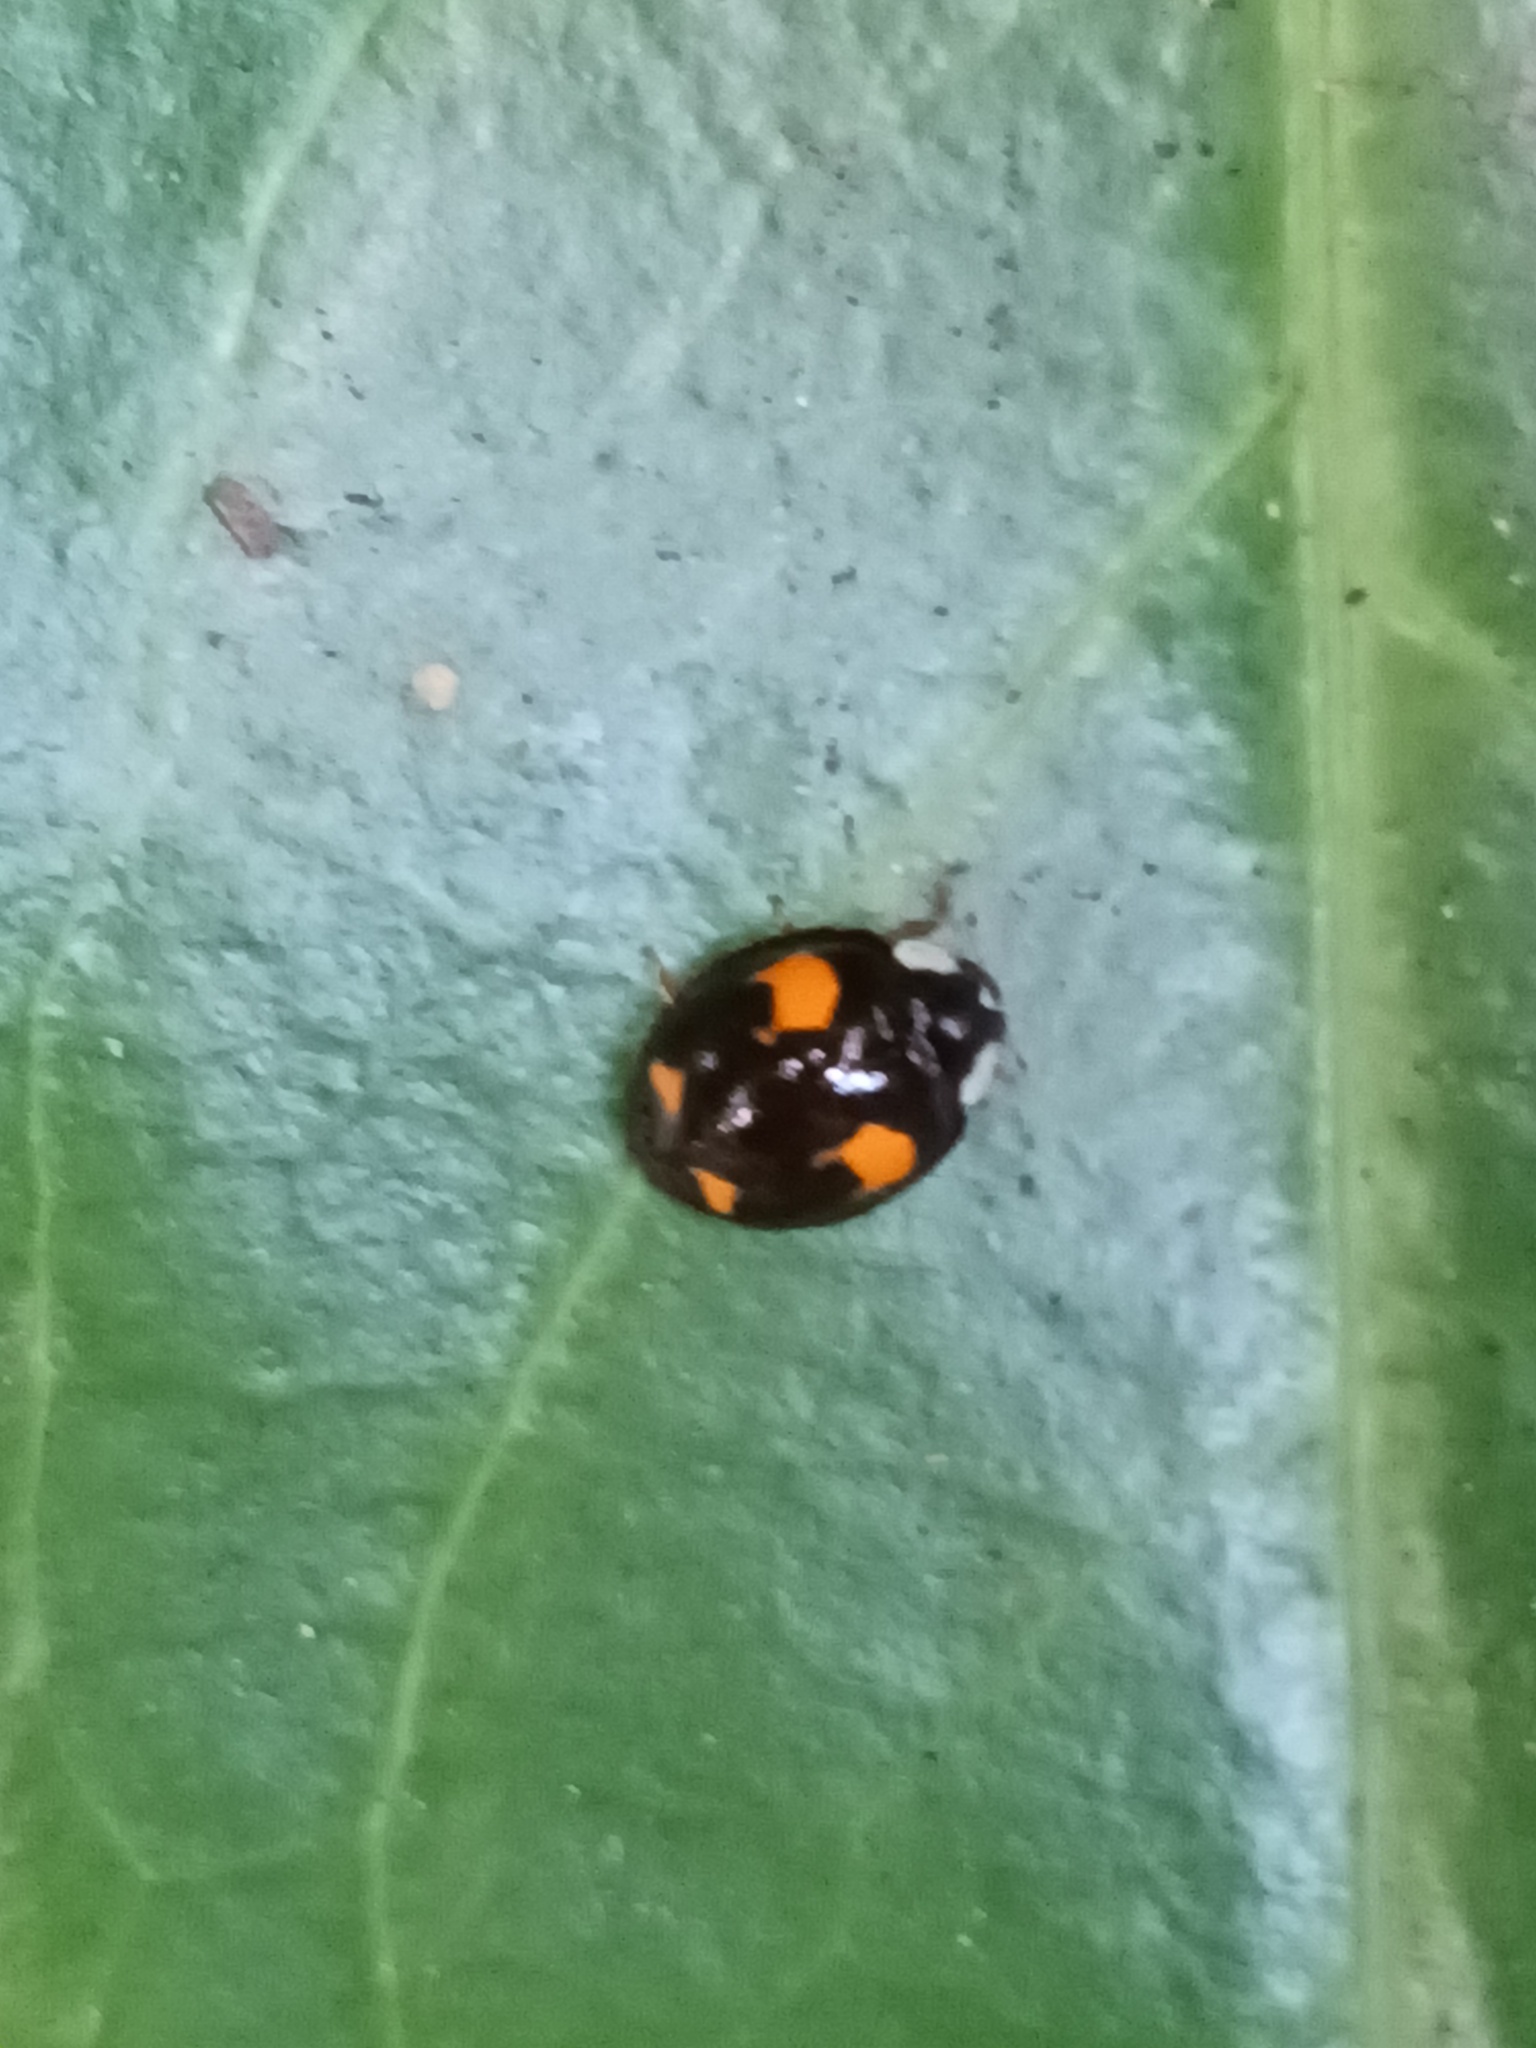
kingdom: Animalia
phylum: Arthropoda
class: Insecta
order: Coleoptera
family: Coccinellidae
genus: Harmonia
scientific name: Harmonia axyridis
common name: Harlequin ladybird
